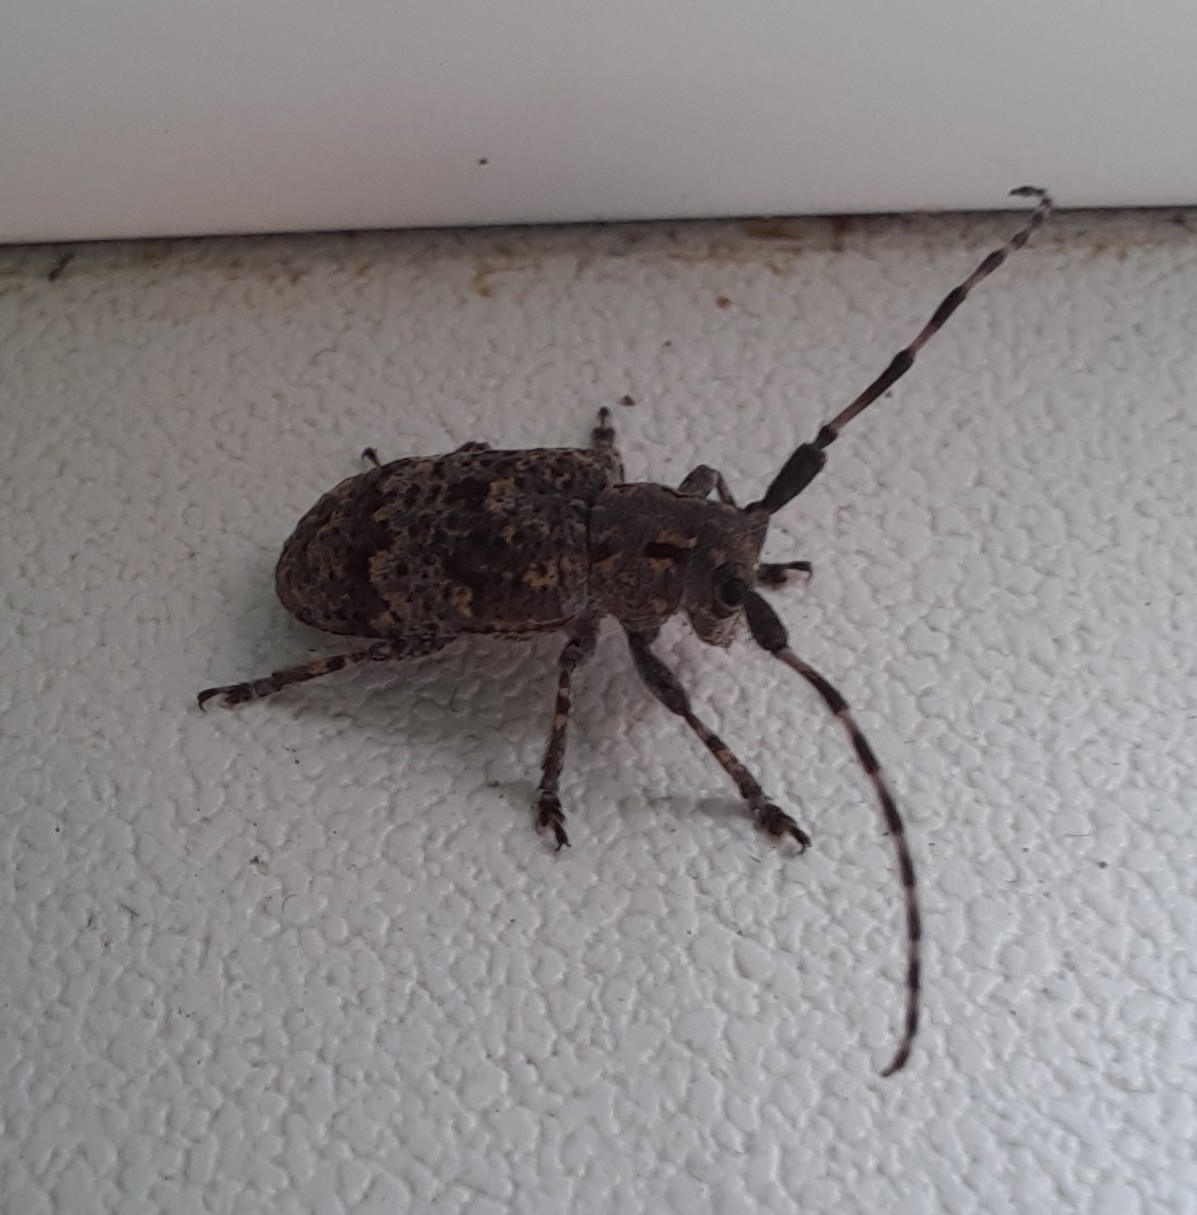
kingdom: Animalia
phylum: Arthropoda
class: Insecta
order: Coleoptera
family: Cerambycidae
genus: Mesosa
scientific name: Mesosa myops
